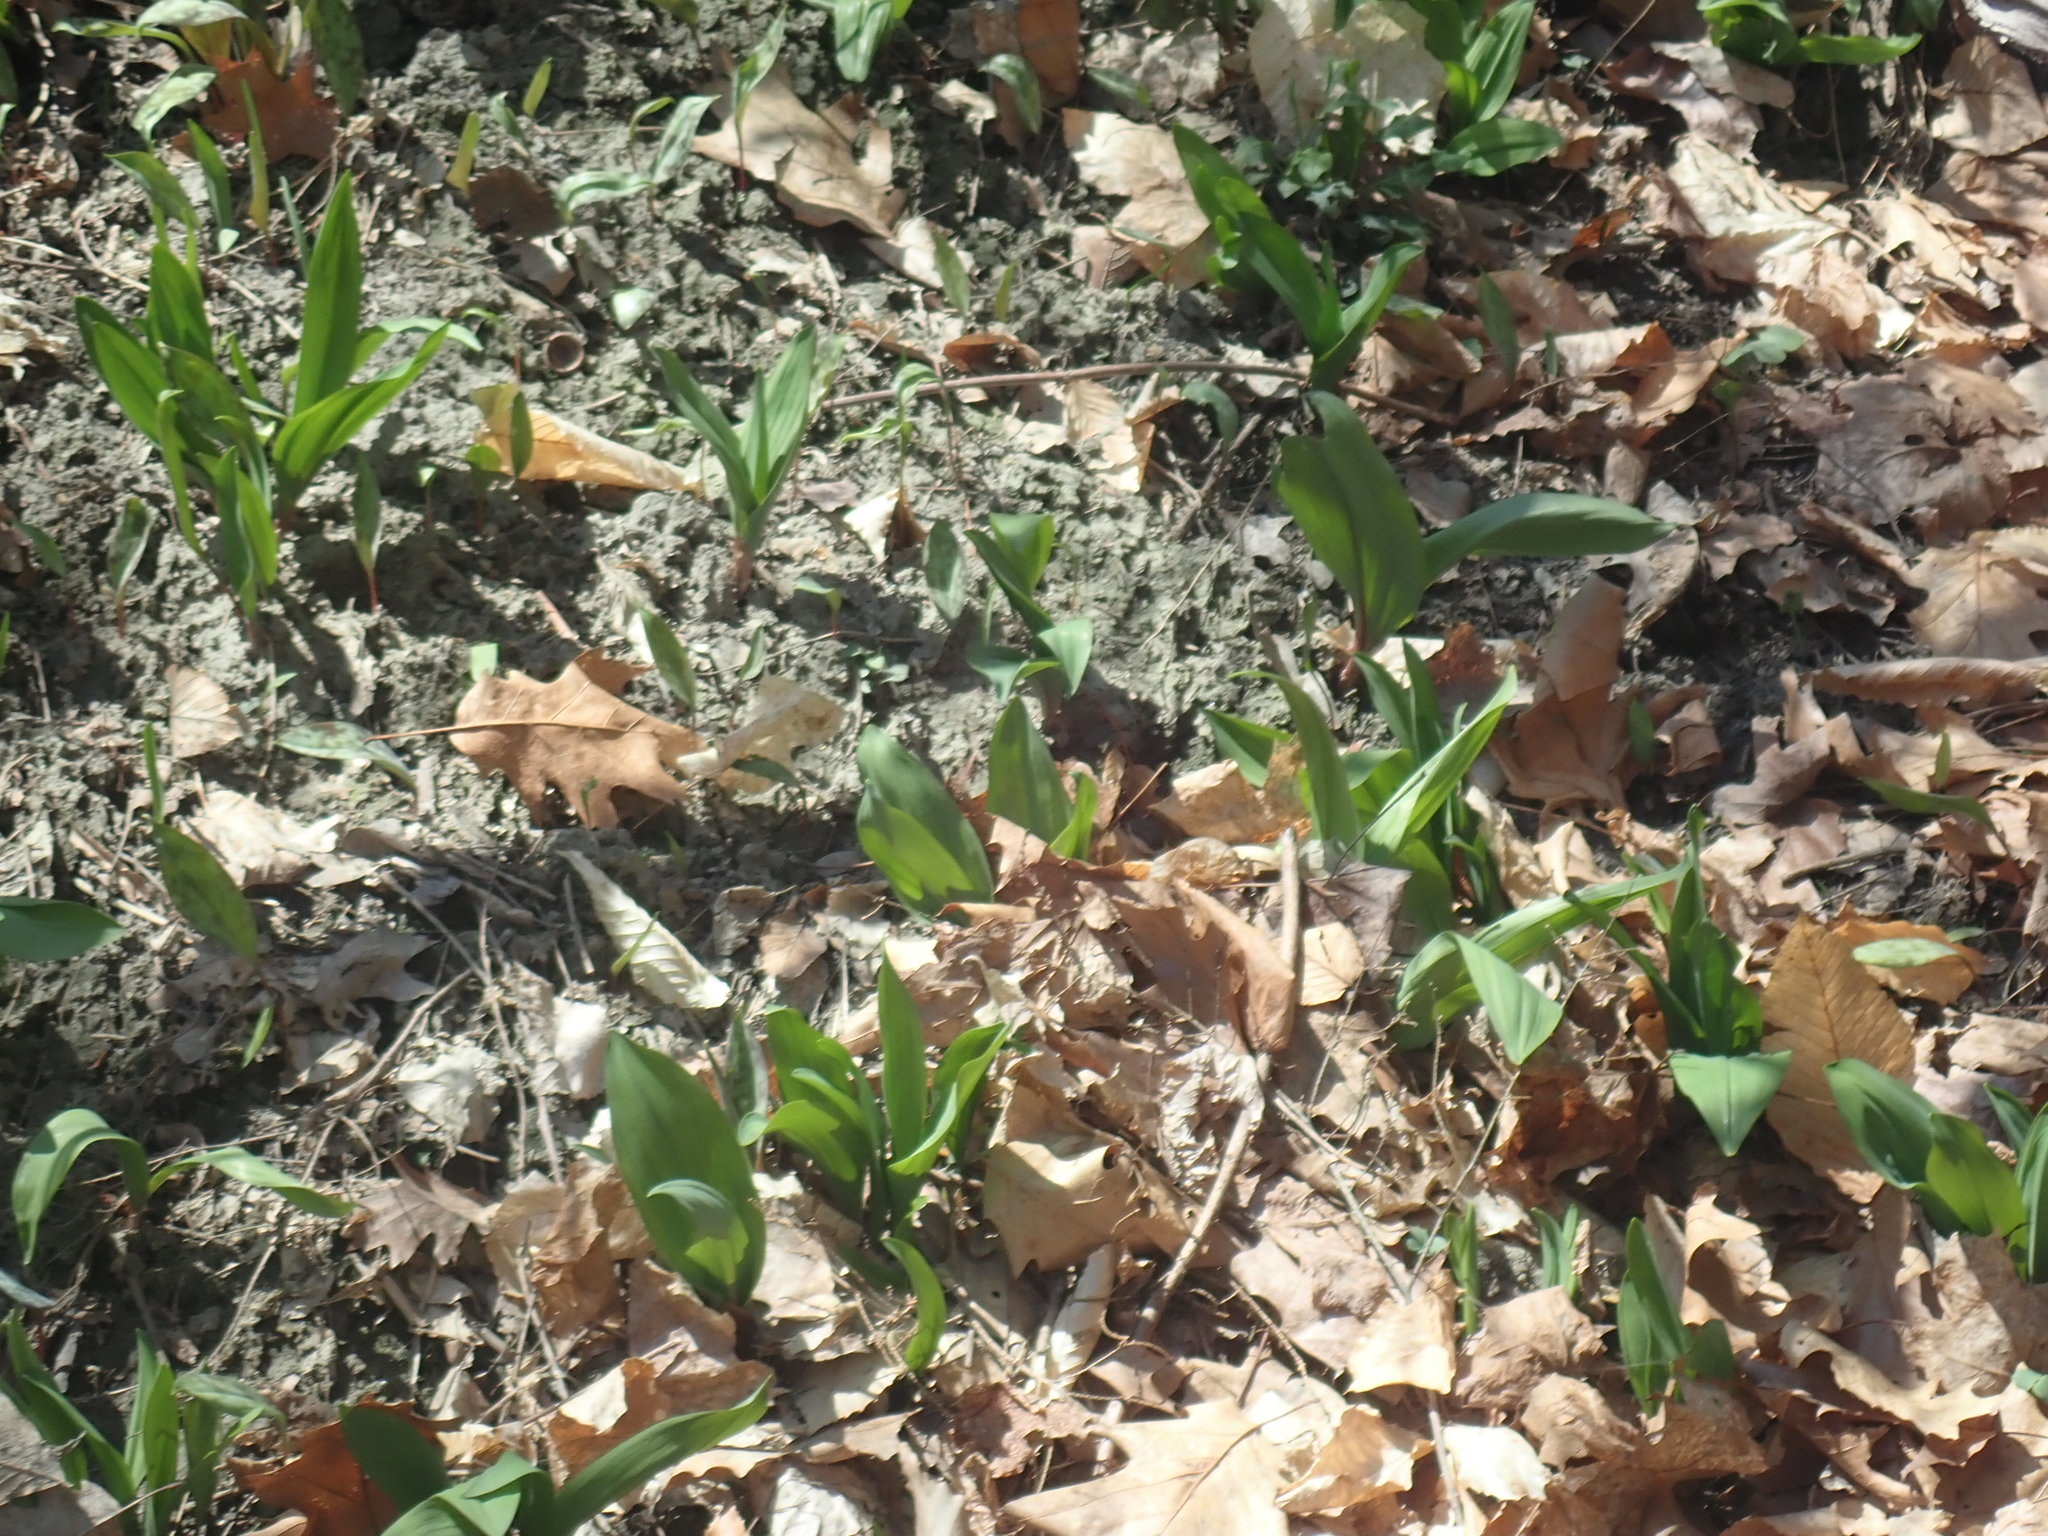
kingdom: Plantae
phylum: Tracheophyta
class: Liliopsida
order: Asparagales
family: Amaryllidaceae
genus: Allium
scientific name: Allium tricoccum
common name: Ramp
